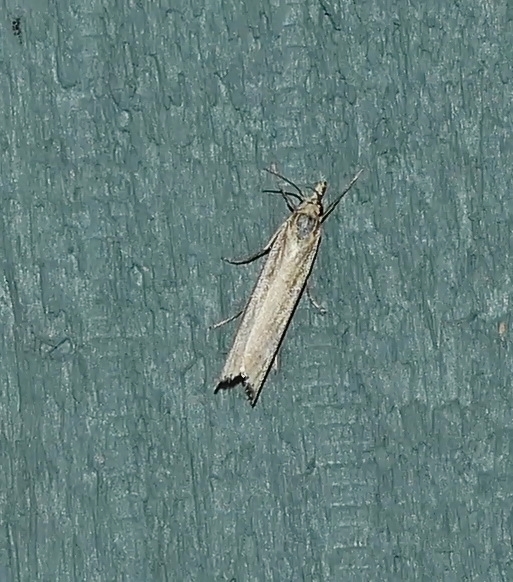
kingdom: Animalia
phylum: Arthropoda
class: Insecta
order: Lepidoptera
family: Crambidae
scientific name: Crambidae
